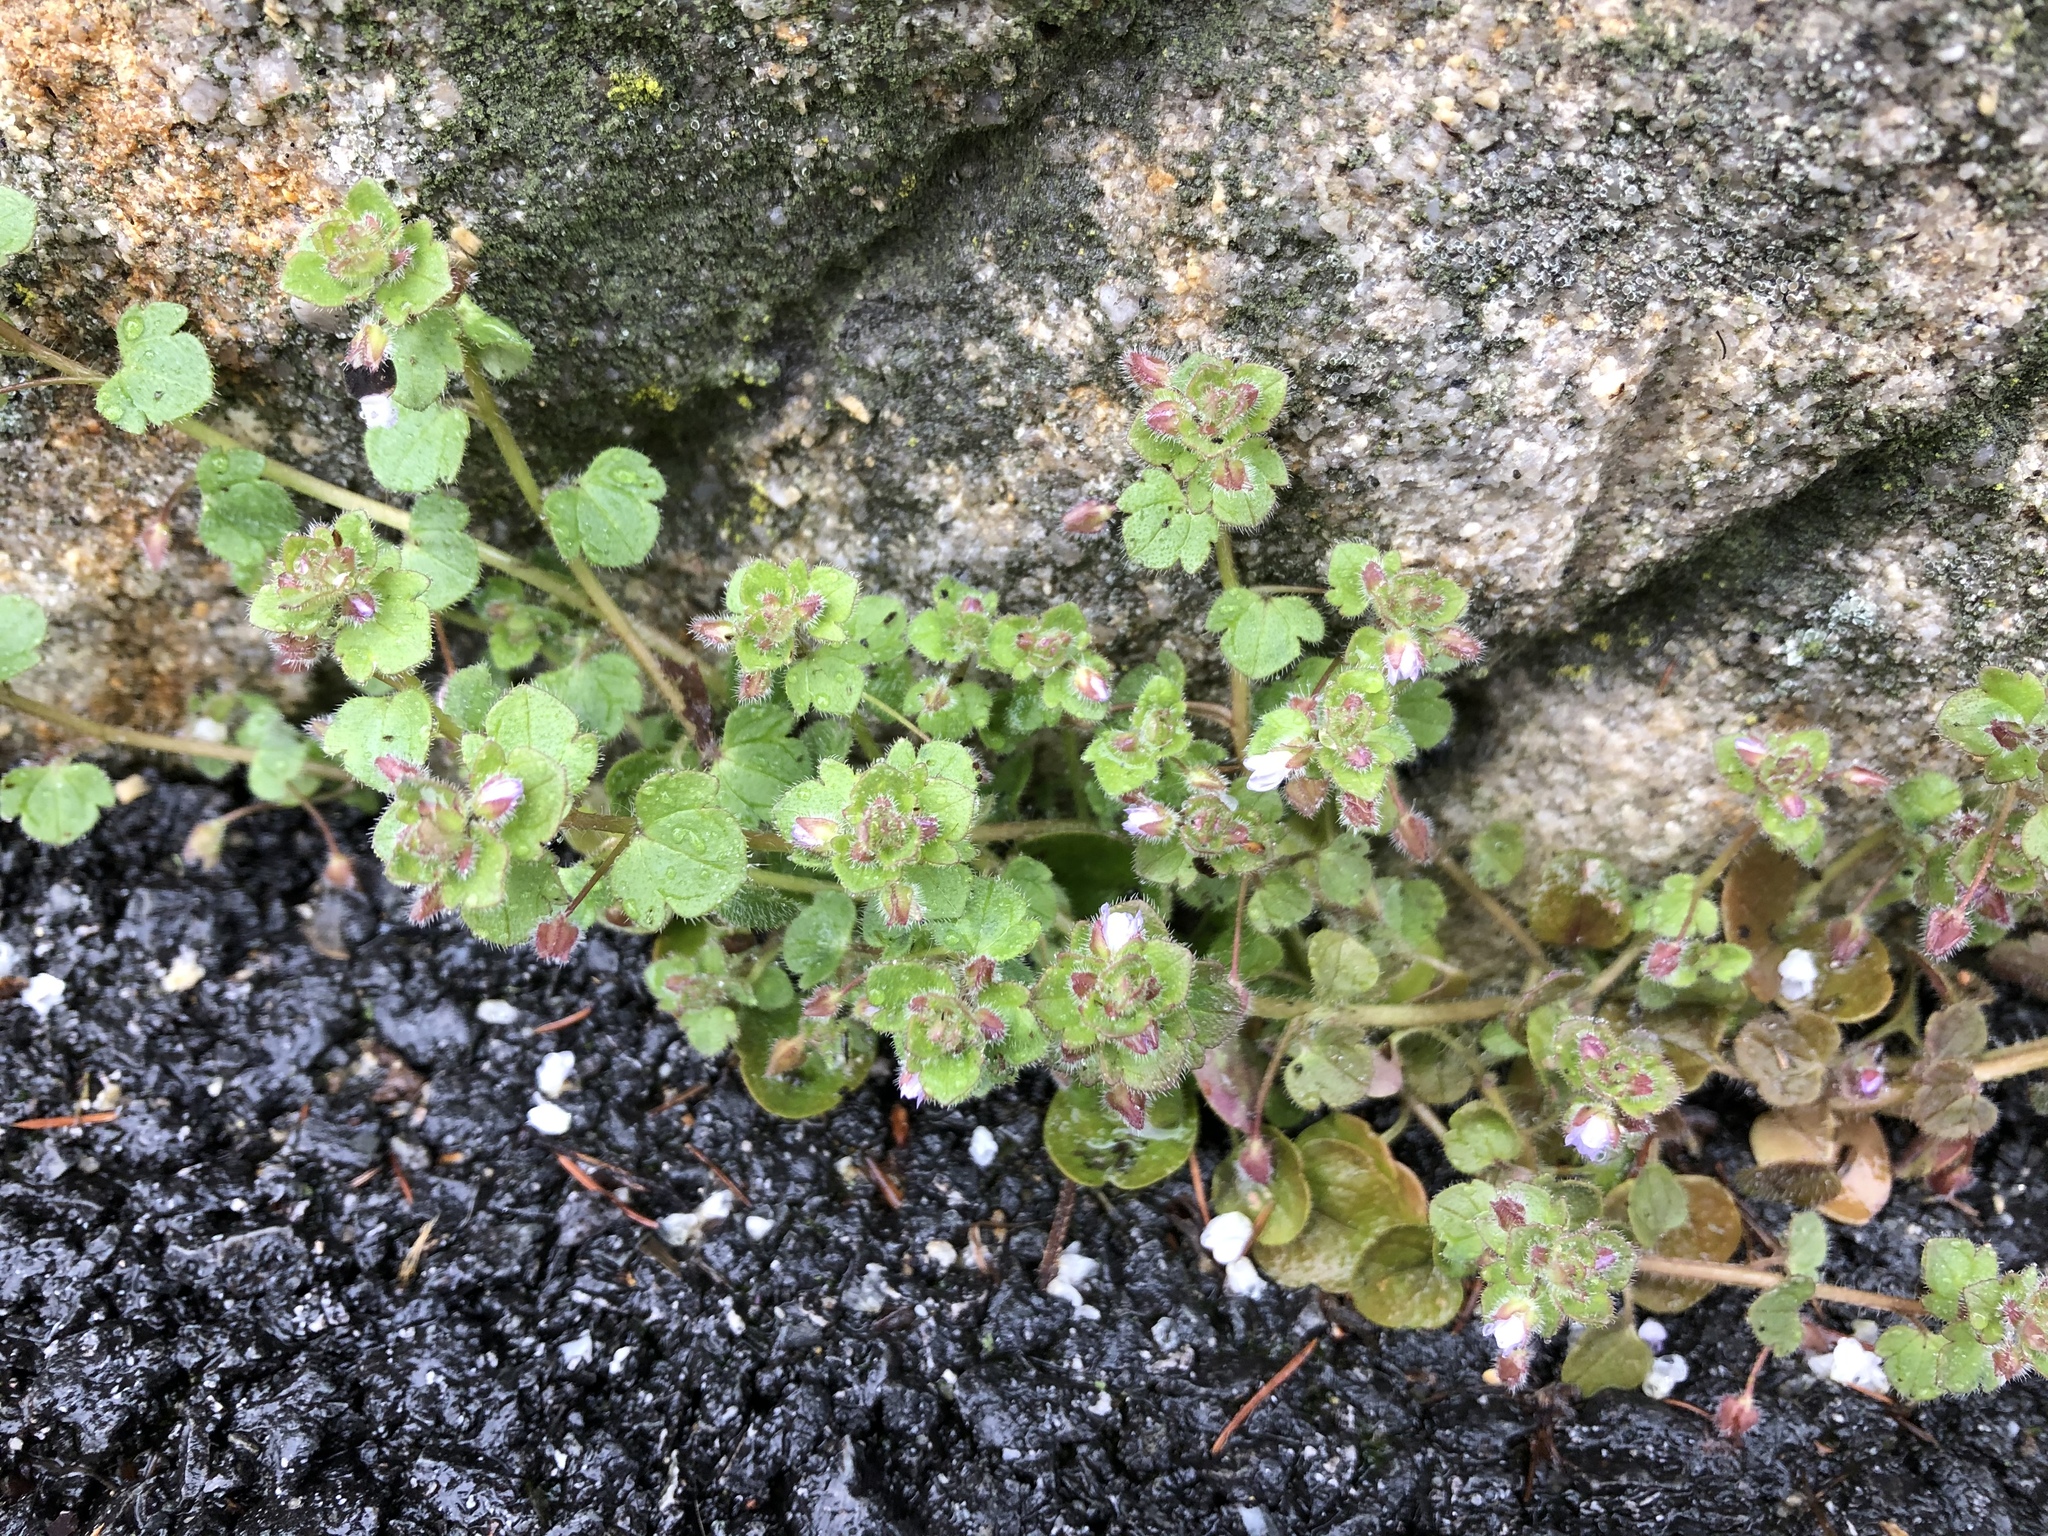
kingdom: Plantae
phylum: Tracheophyta
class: Magnoliopsida
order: Lamiales
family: Plantaginaceae
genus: Veronica
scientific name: Veronica sublobata
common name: False ivy-leaved speedwell
